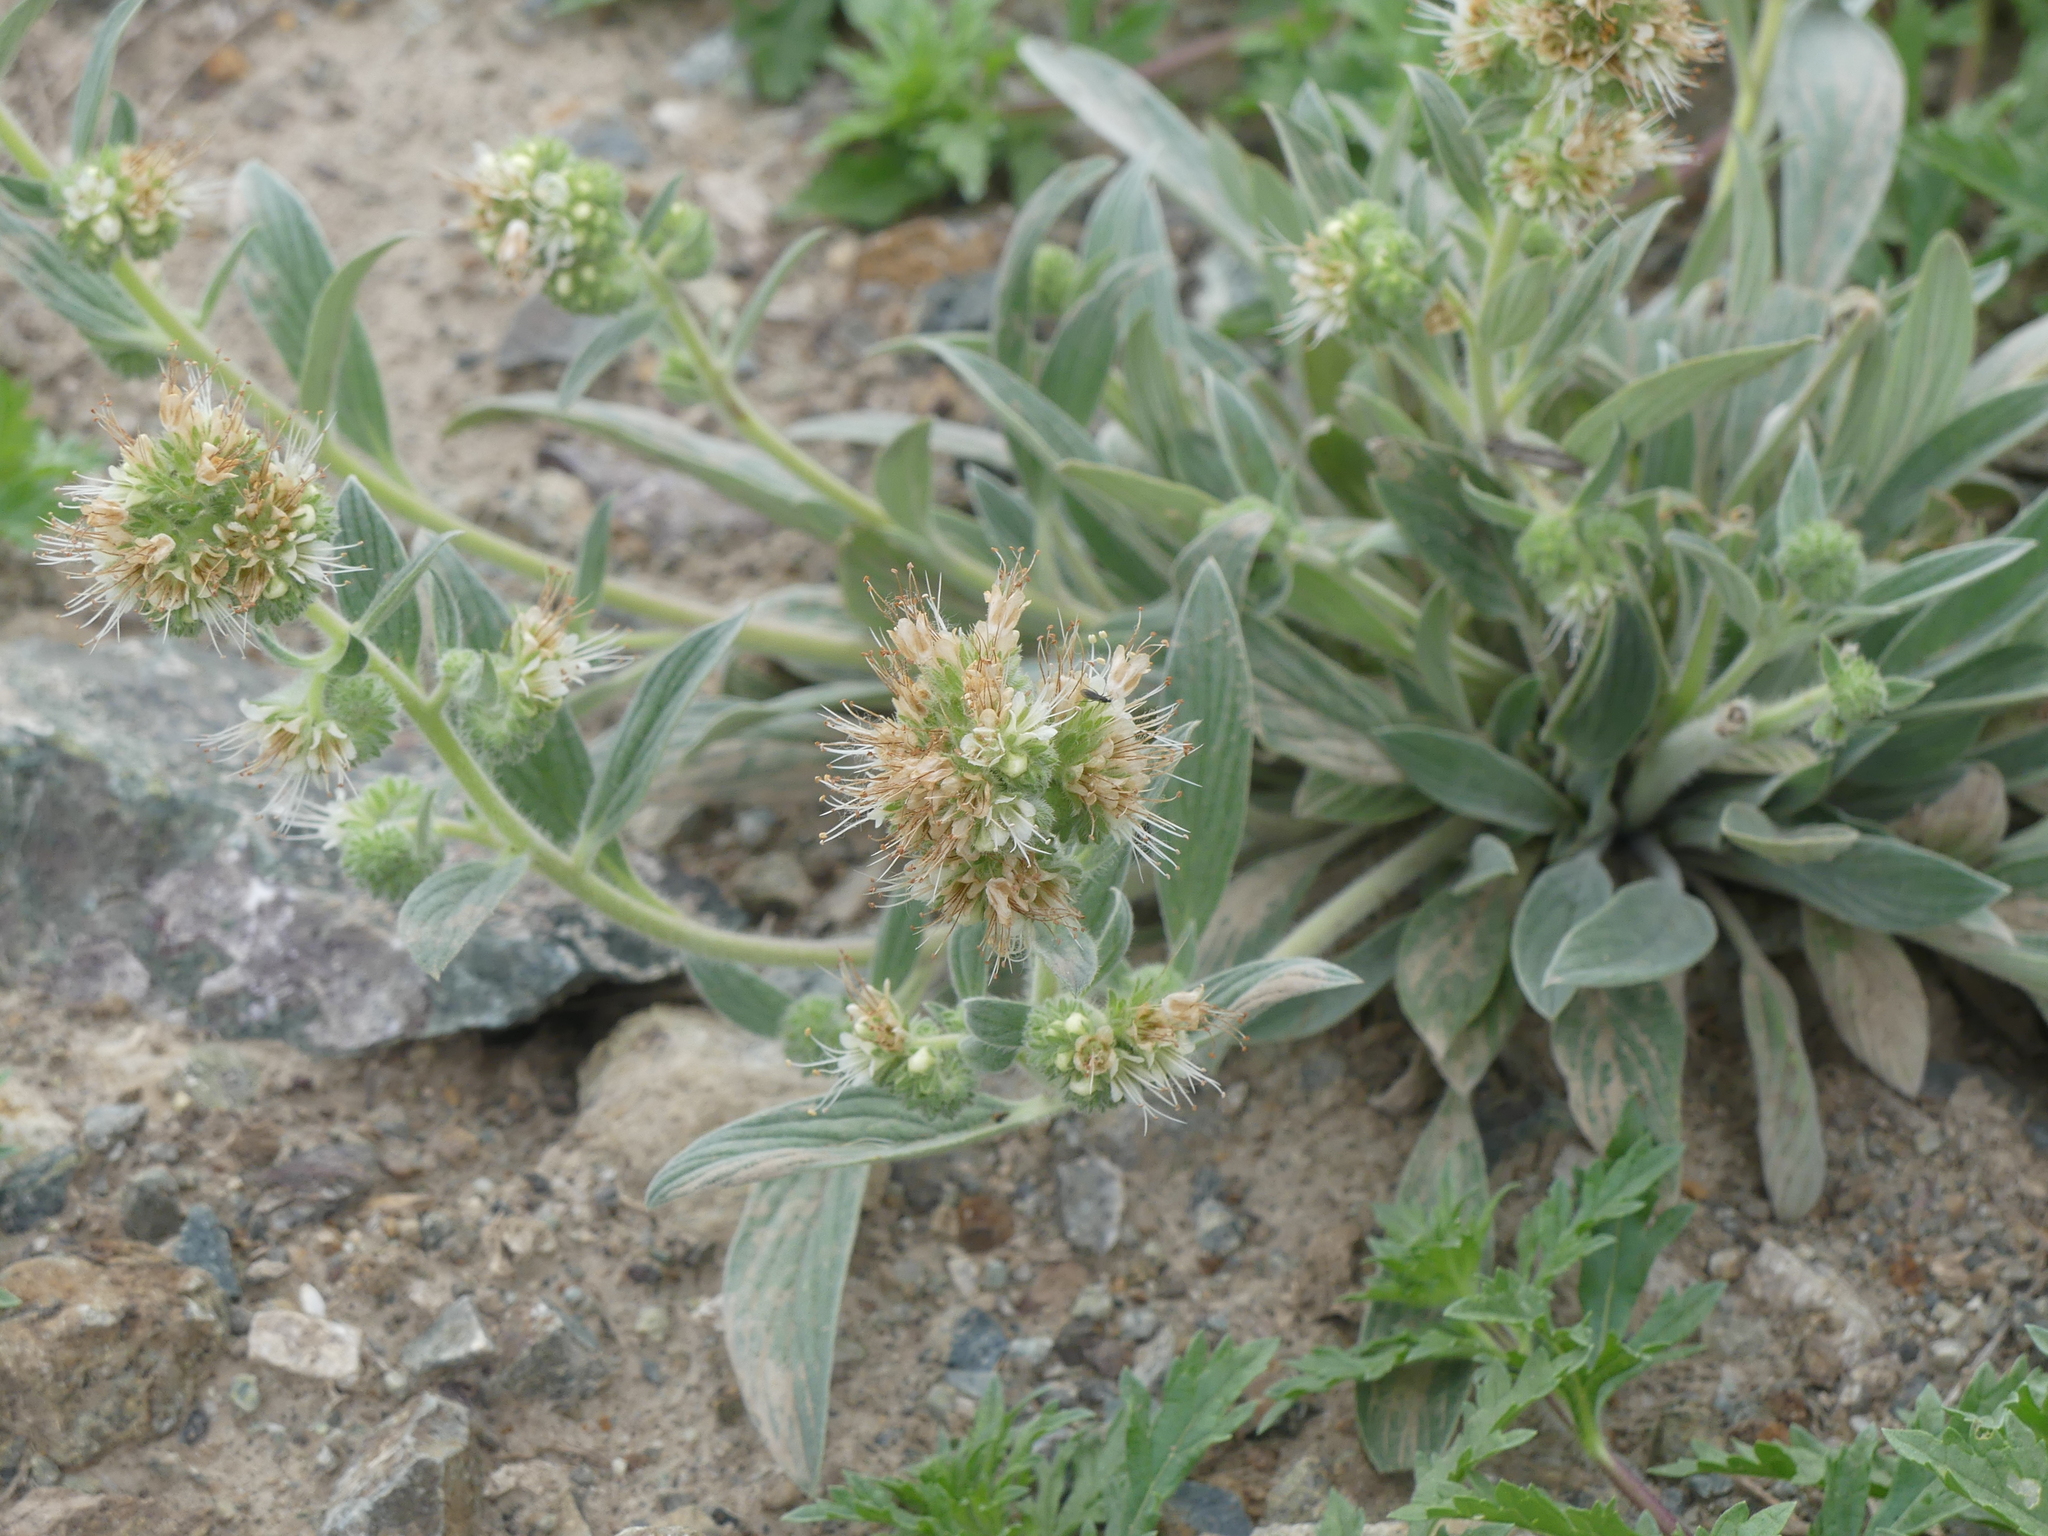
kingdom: Plantae
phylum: Tracheophyta
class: Magnoliopsida
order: Boraginales
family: Hydrophyllaceae
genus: Phacelia
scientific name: Phacelia hastata
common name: Silver-leaved phacelia
